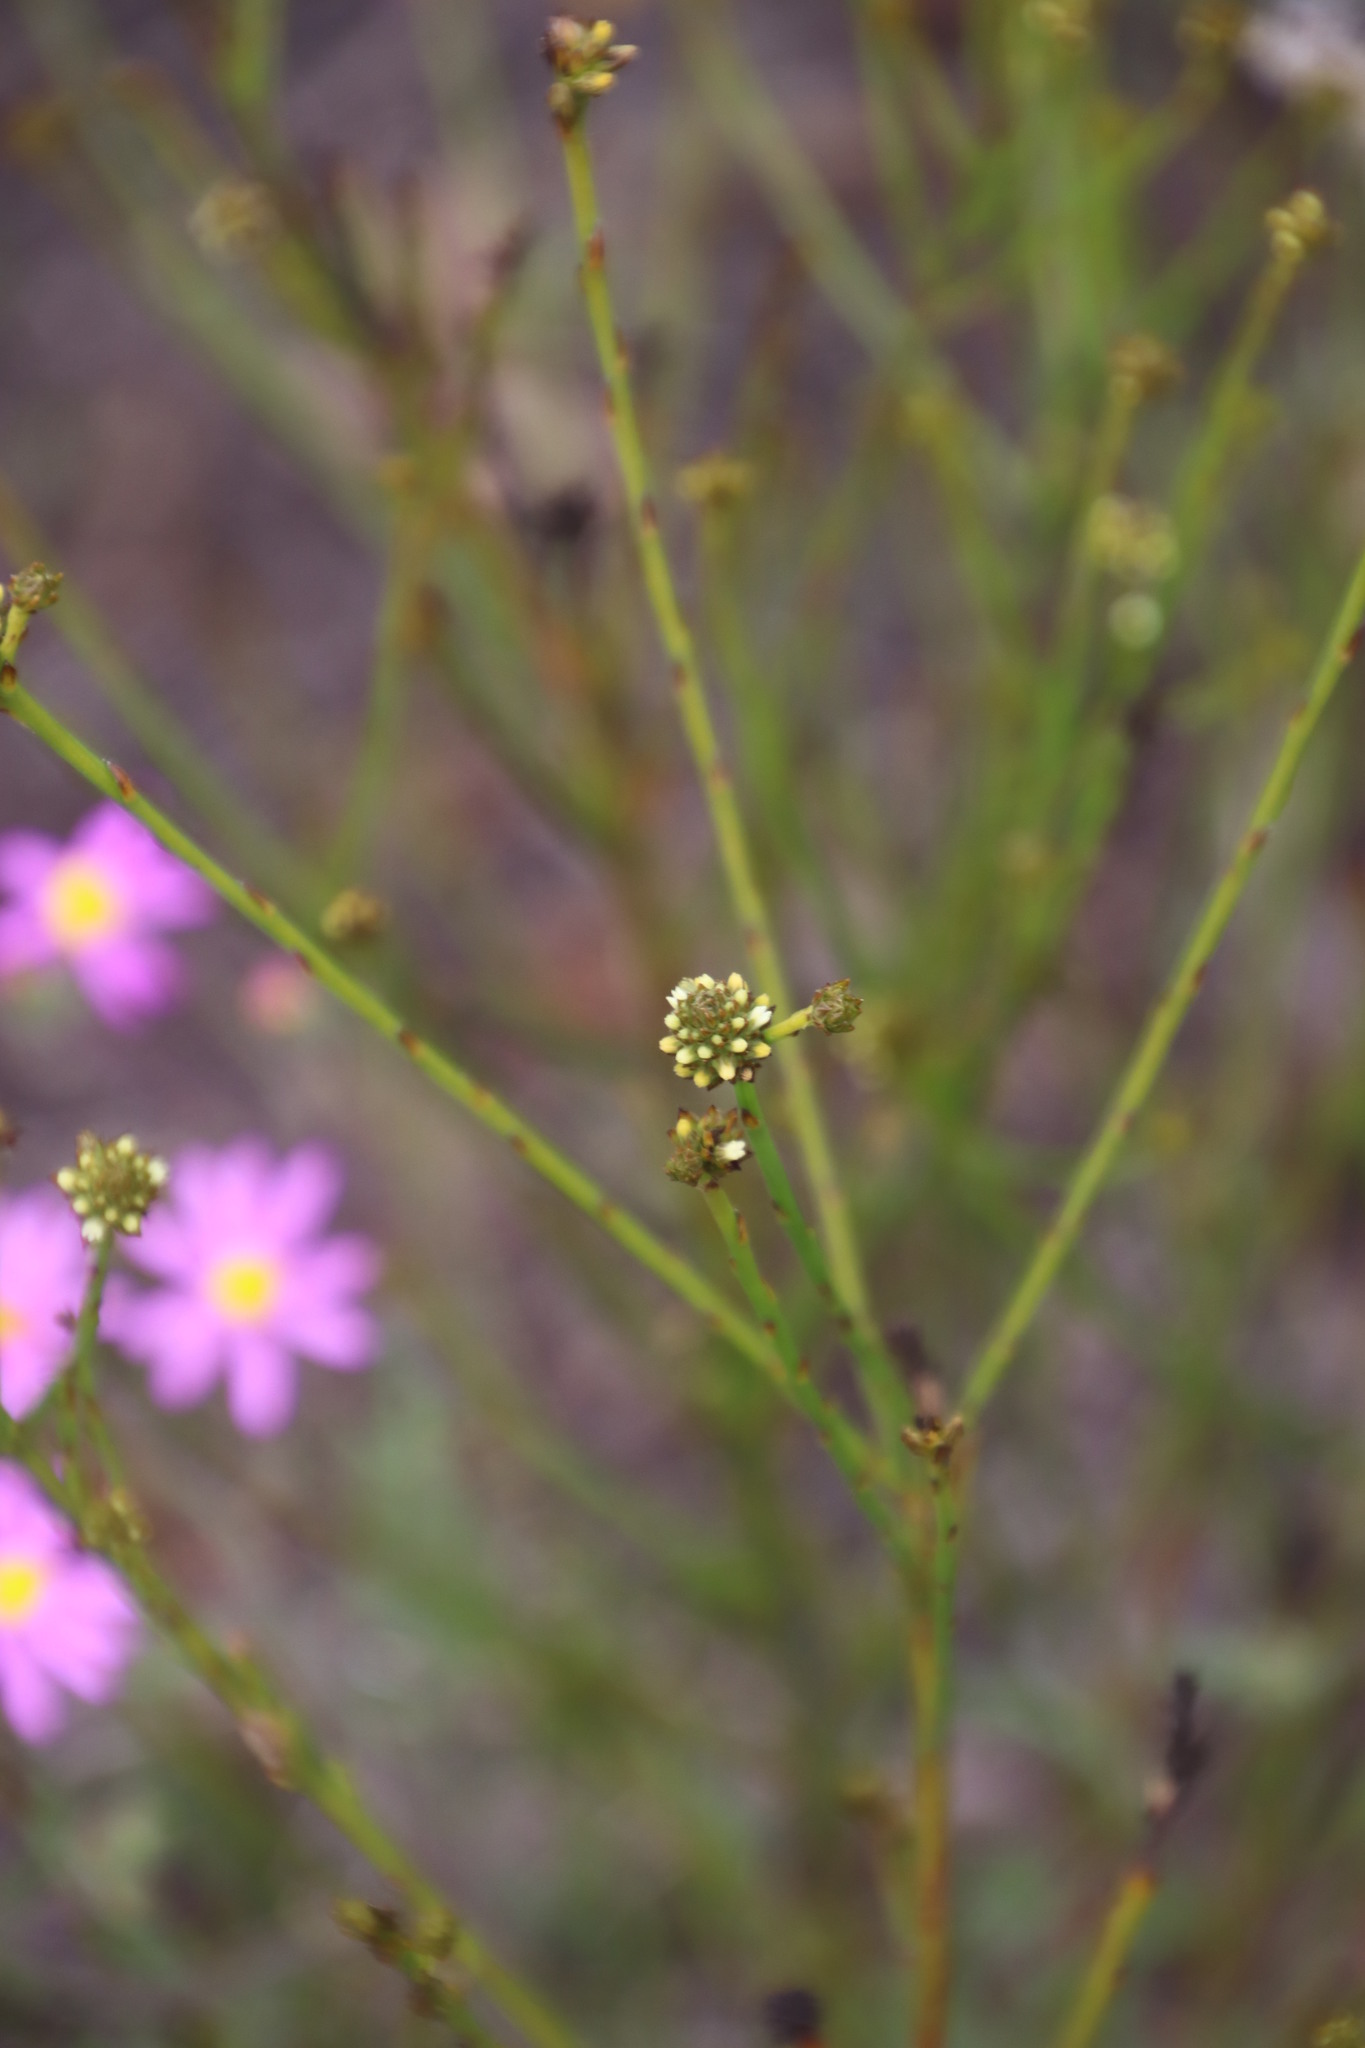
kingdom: Plantae
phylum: Tracheophyta
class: Magnoliopsida
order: Santalales
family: Thesiaceae
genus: Thesium
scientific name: Thesium aggregatum
